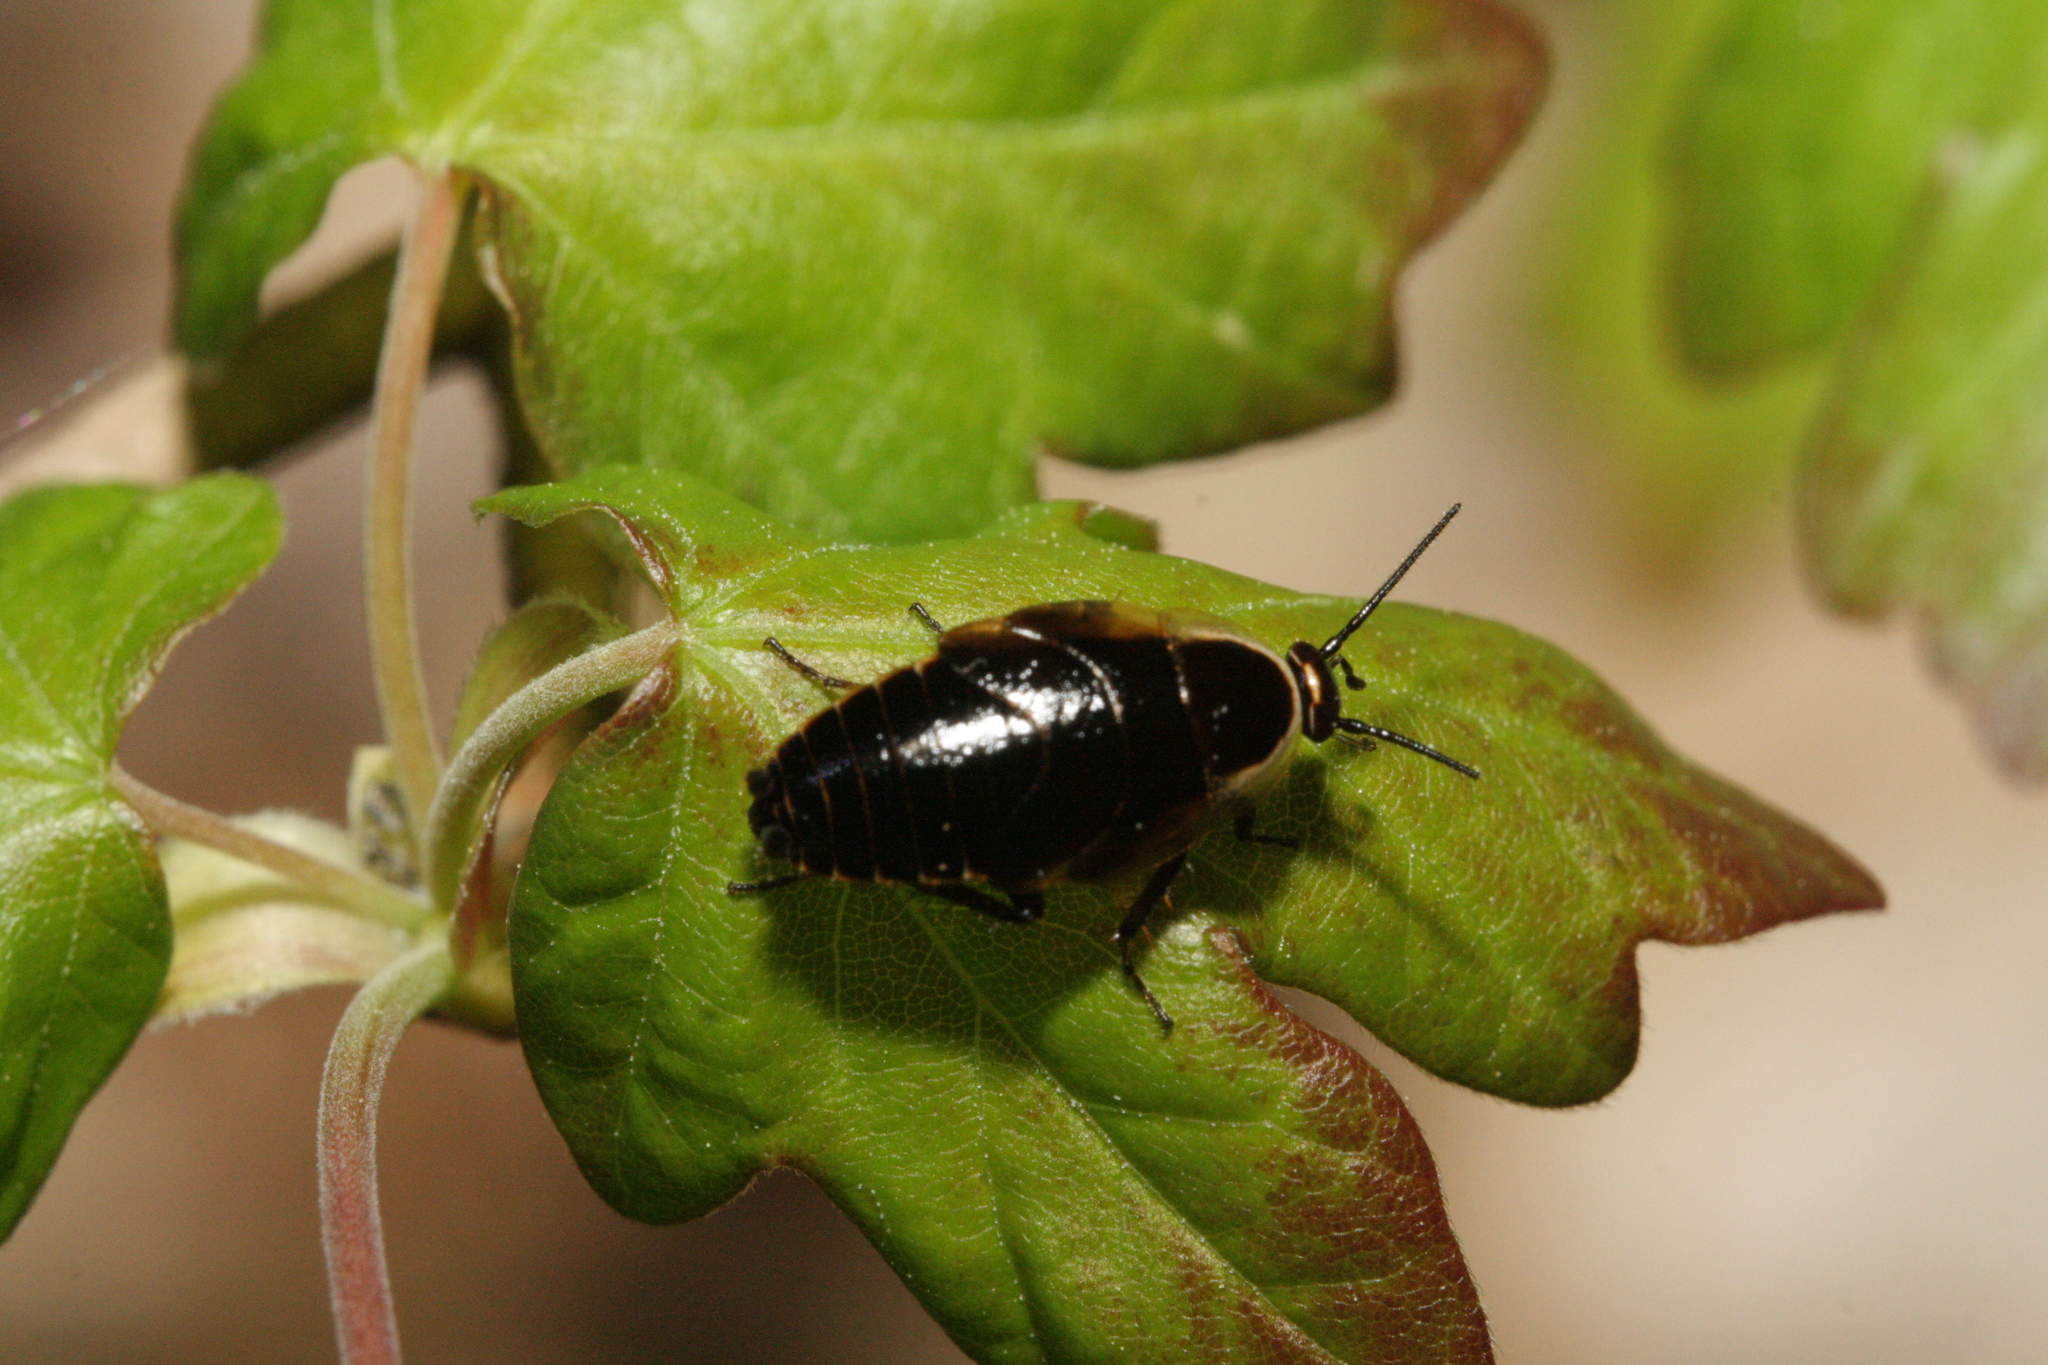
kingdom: Animalia
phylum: Arthropoda
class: Insecta
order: Blattodea
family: Ectobiidae
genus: Ectobius
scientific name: Ectobius sylvestris
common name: Forest cockroach
